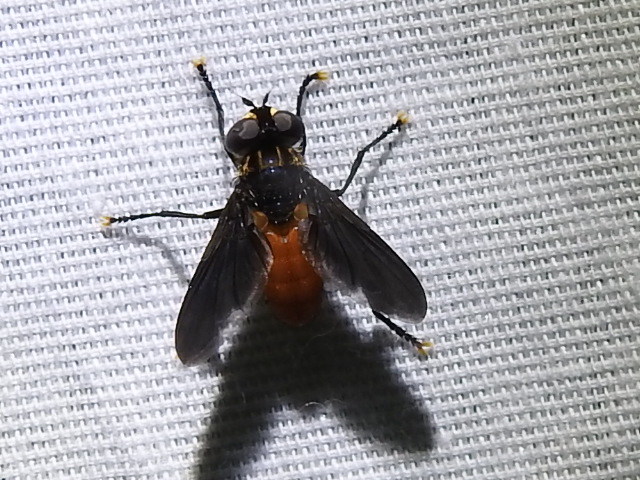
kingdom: Animalia
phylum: Arthropoda
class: Insecta
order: Diptera
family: Tachinidae
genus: Trichopoda
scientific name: Trichopoda pennipes
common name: Tachinid fly
